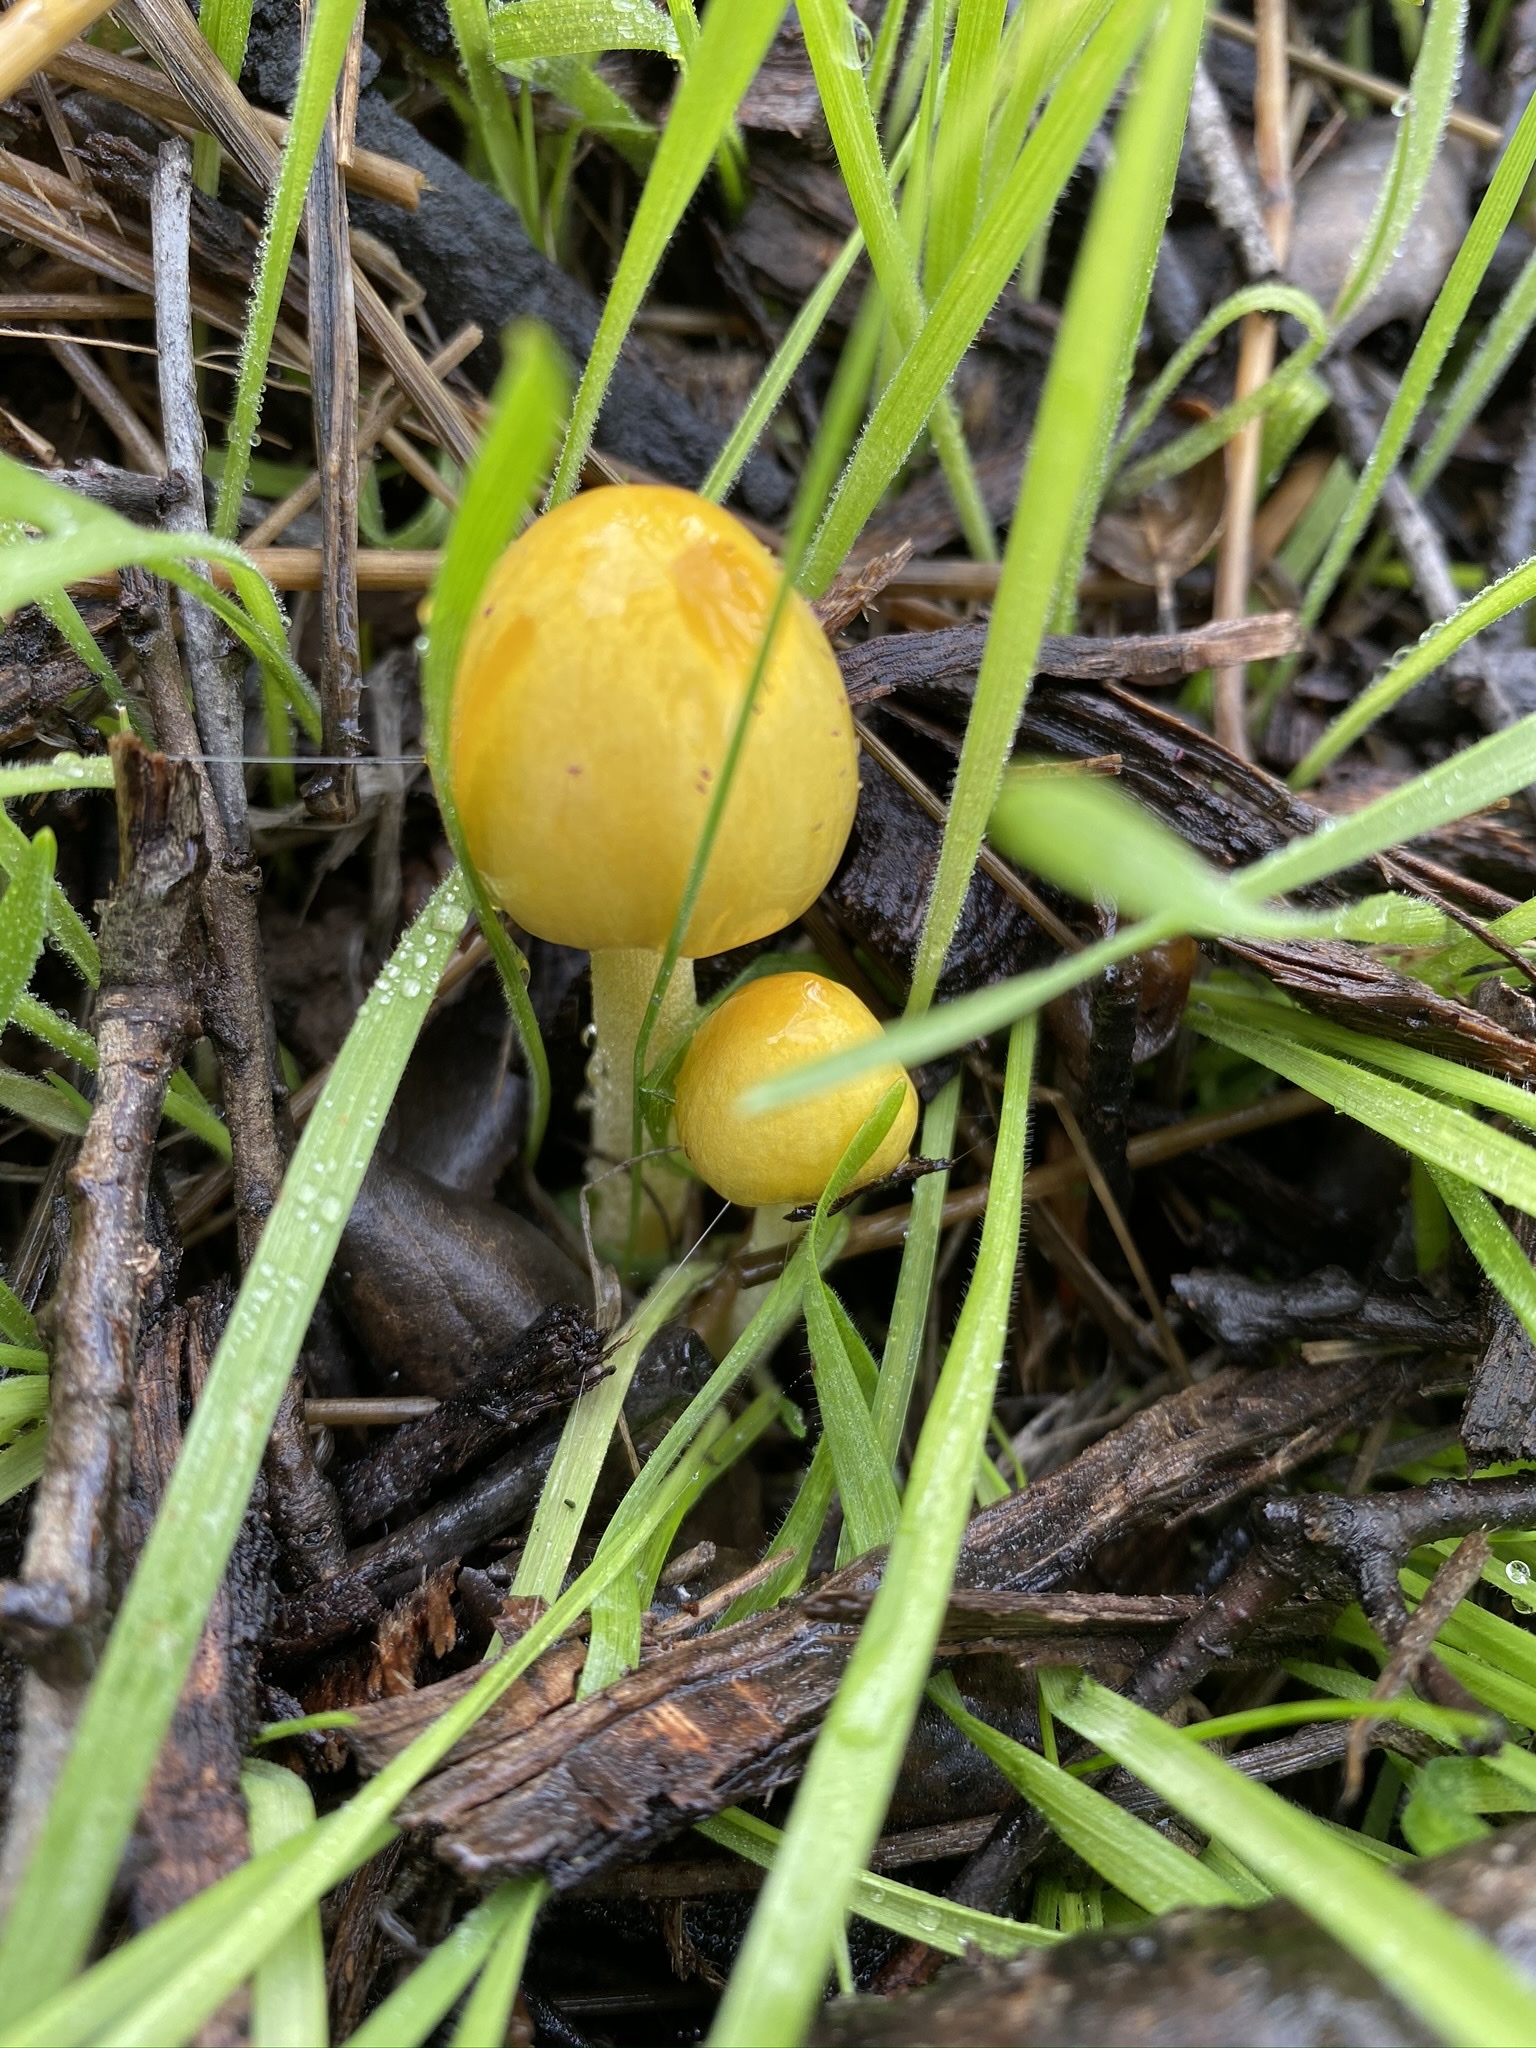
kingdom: Fungi
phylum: Basidiomycota
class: Agaricomycetes
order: Agaricales
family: Bolbitiaceae
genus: Bolbitius
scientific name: Bolbitius titubans
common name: Yellow fieldcap
